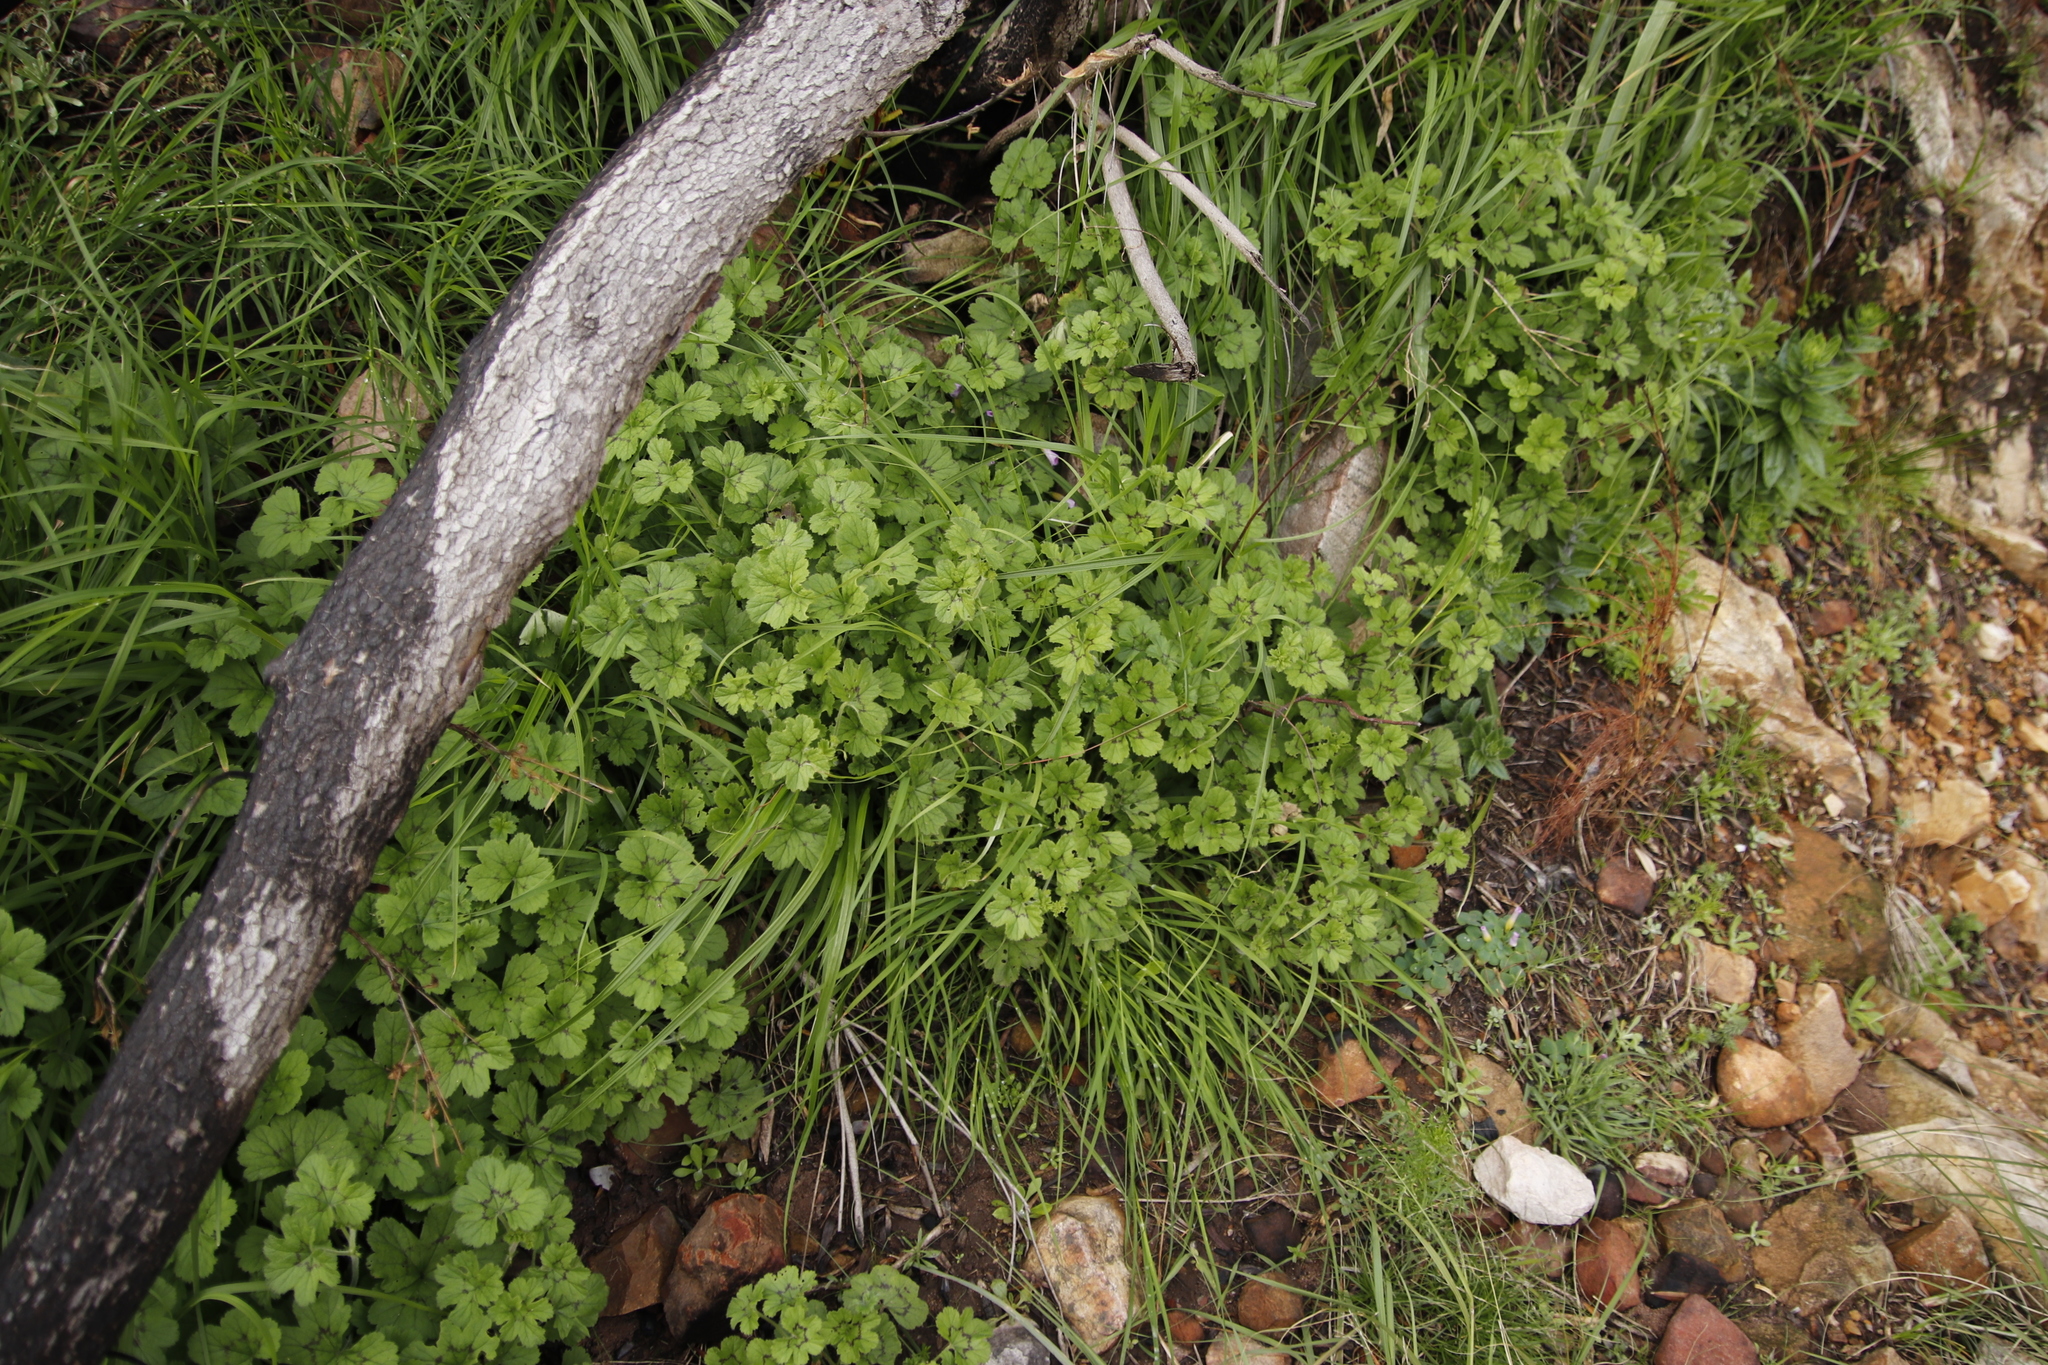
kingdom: Plantae
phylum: Tracheophyta
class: Magnoliopsida
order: Geraniales
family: Geraniaceae
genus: Pelargonium
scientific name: Pelargonium elongatum
